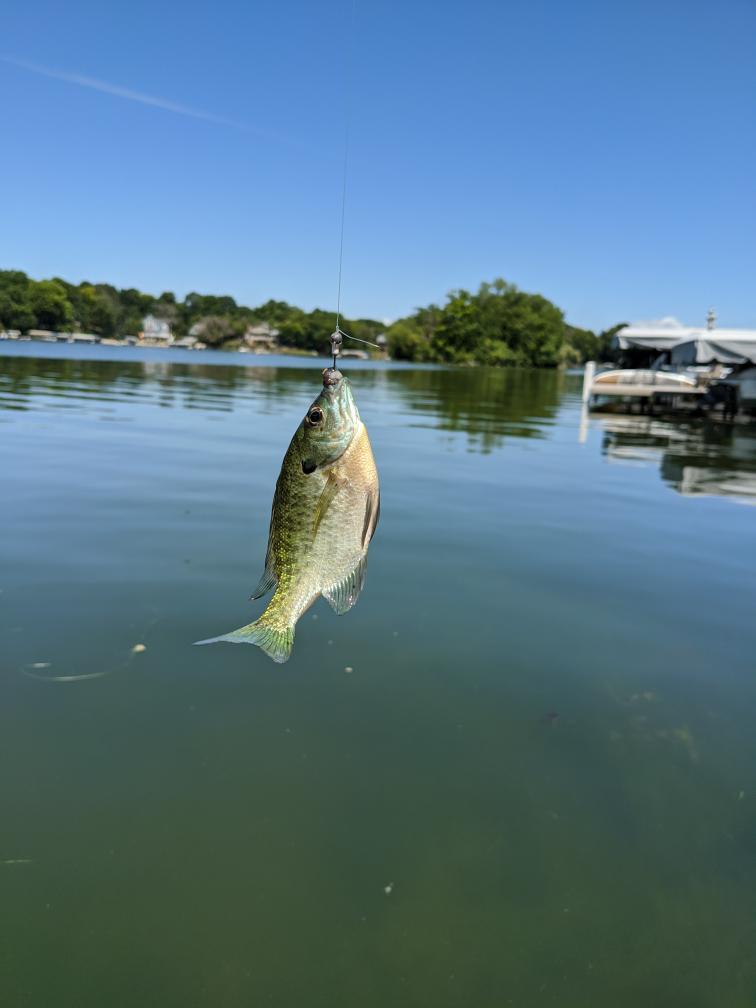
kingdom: Animalia
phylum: Chordata
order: Perciformes
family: Centrarchidae
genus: Lepomis
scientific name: Lepomis macrochirus
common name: Bluegill
